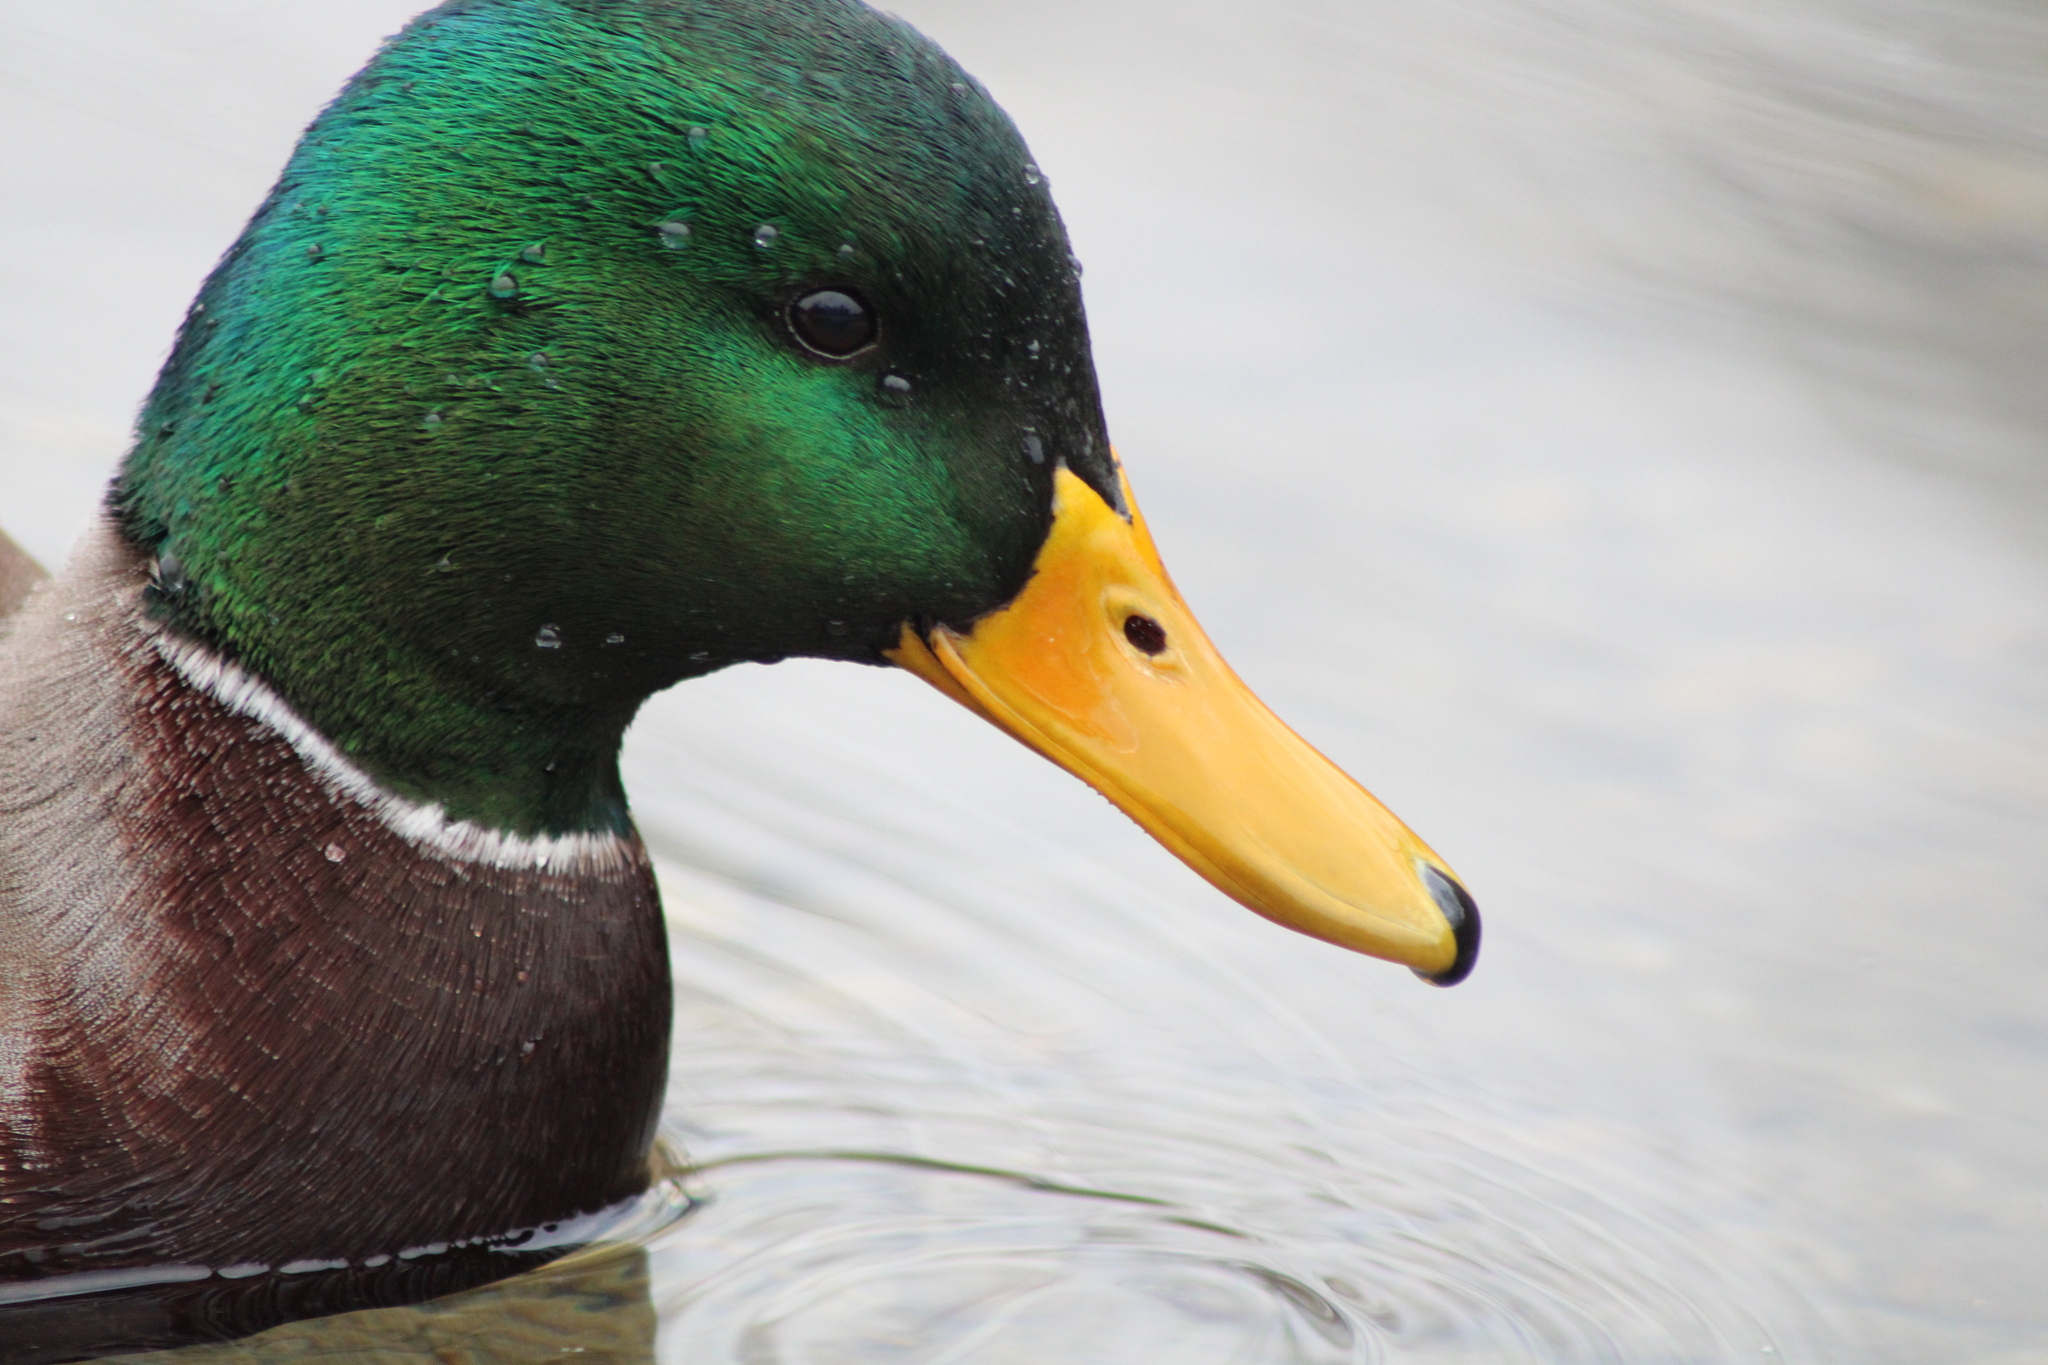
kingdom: Animalia
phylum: Chordata
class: Aves
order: Anseriformes
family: Anatidae
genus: Anas
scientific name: Anas platyrhynchos
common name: Mallard
